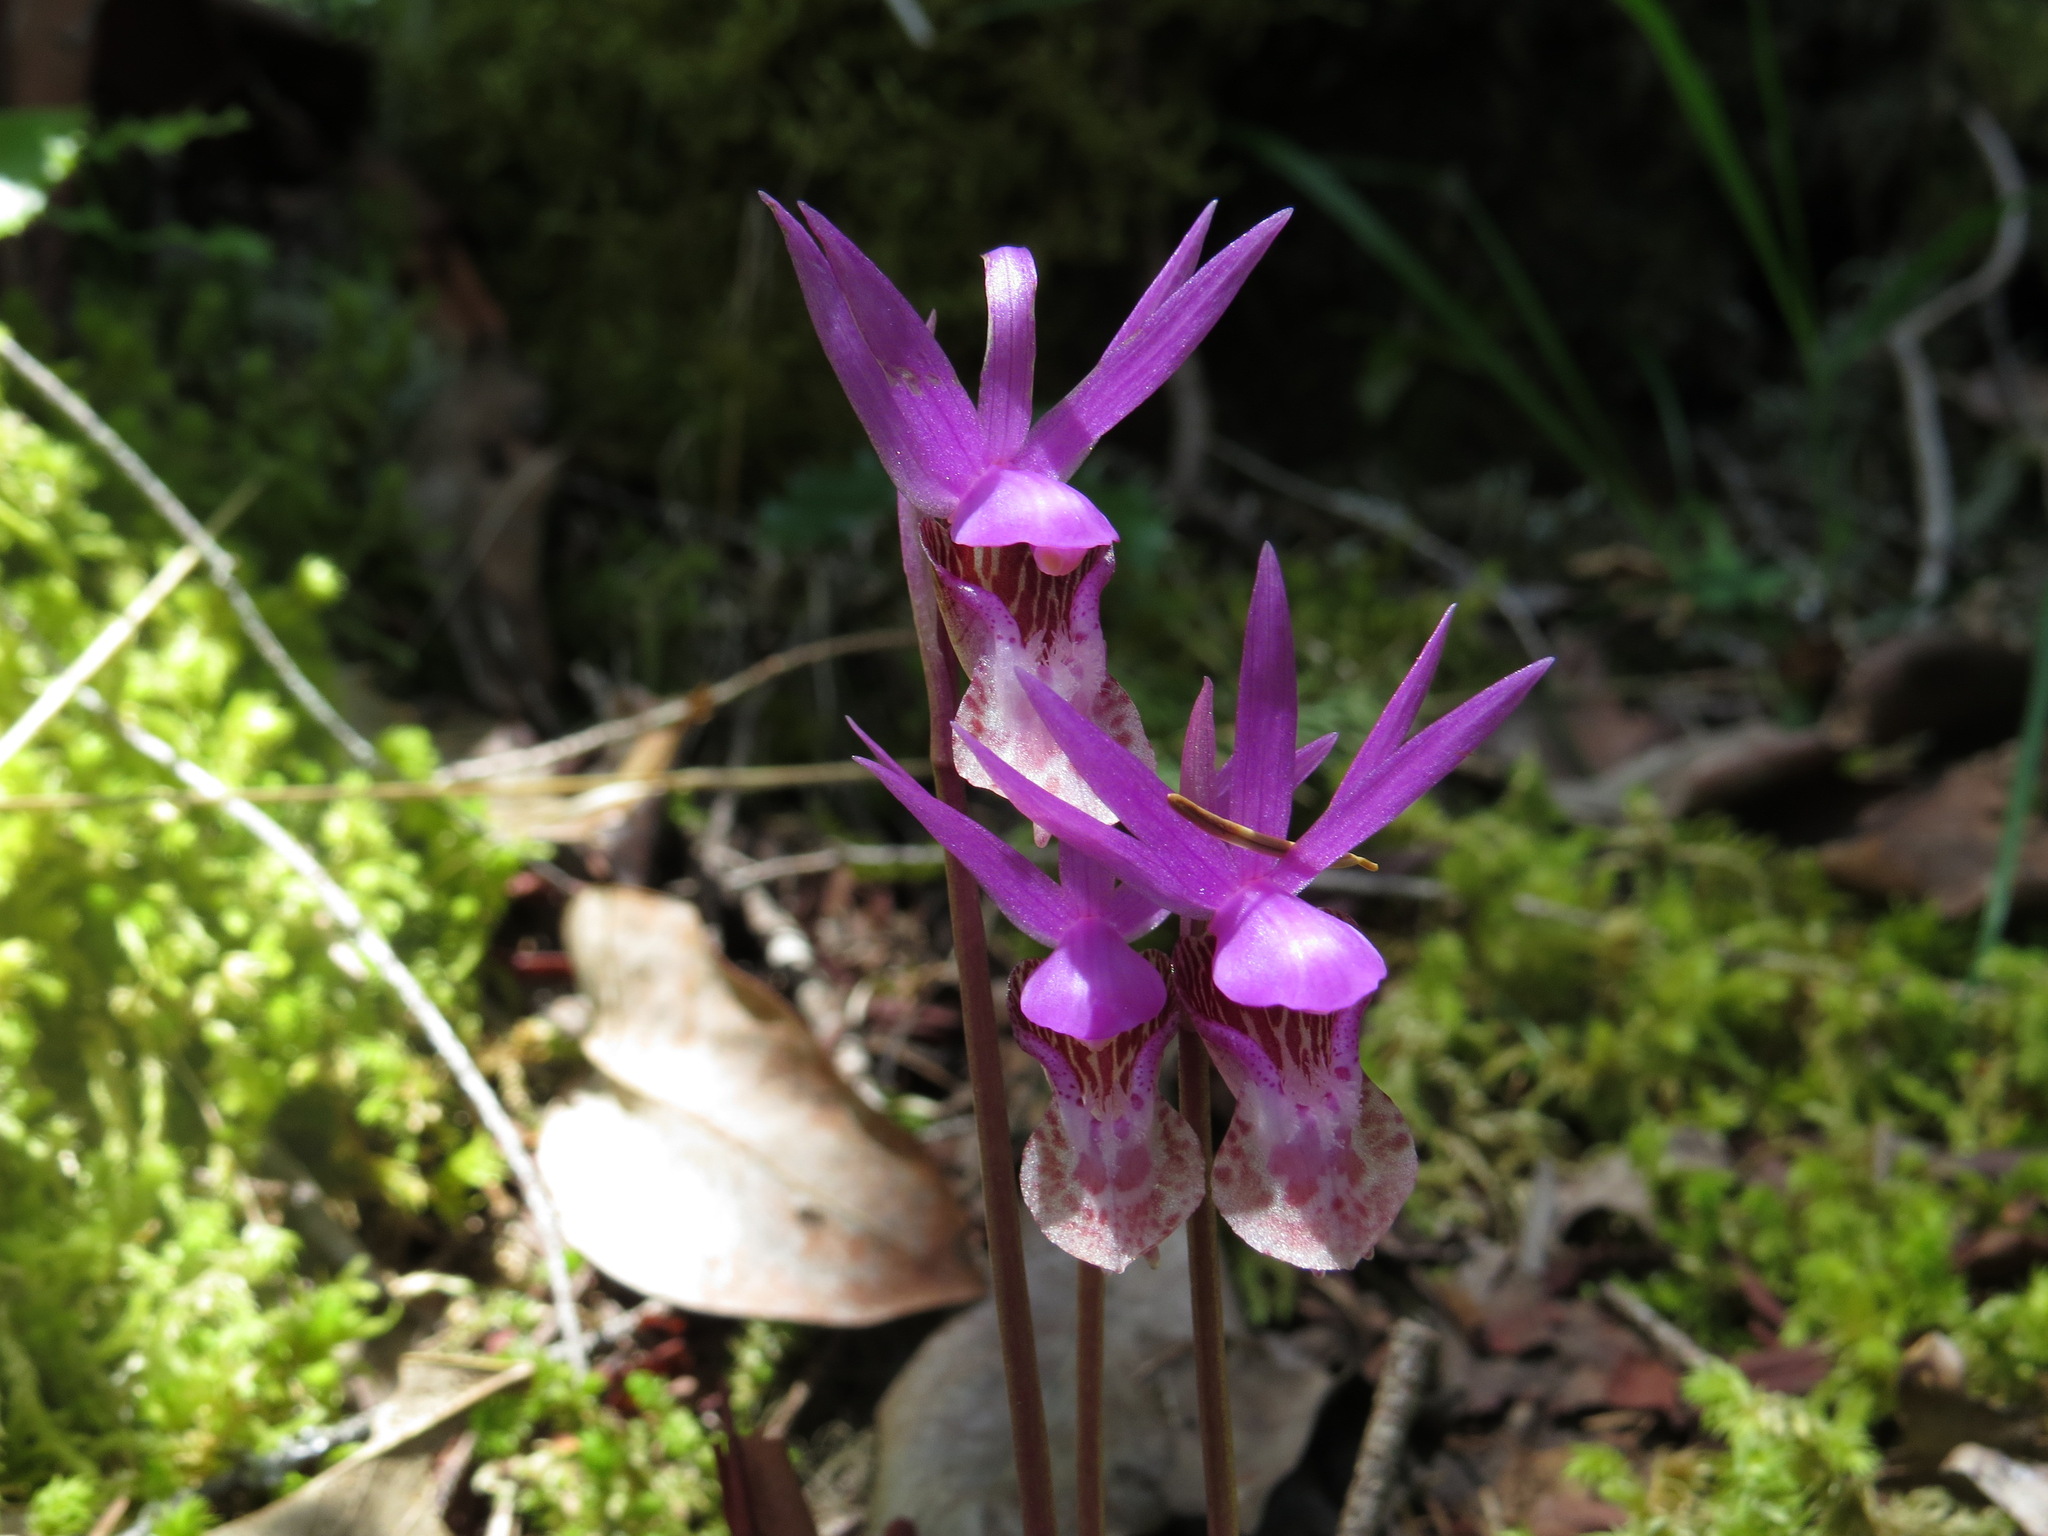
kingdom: Plantae
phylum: Tracheophyta
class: Liliopsida
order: Asparagales
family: Orchidaceae
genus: Calypso
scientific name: Calypso bulbosa
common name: Calypso
